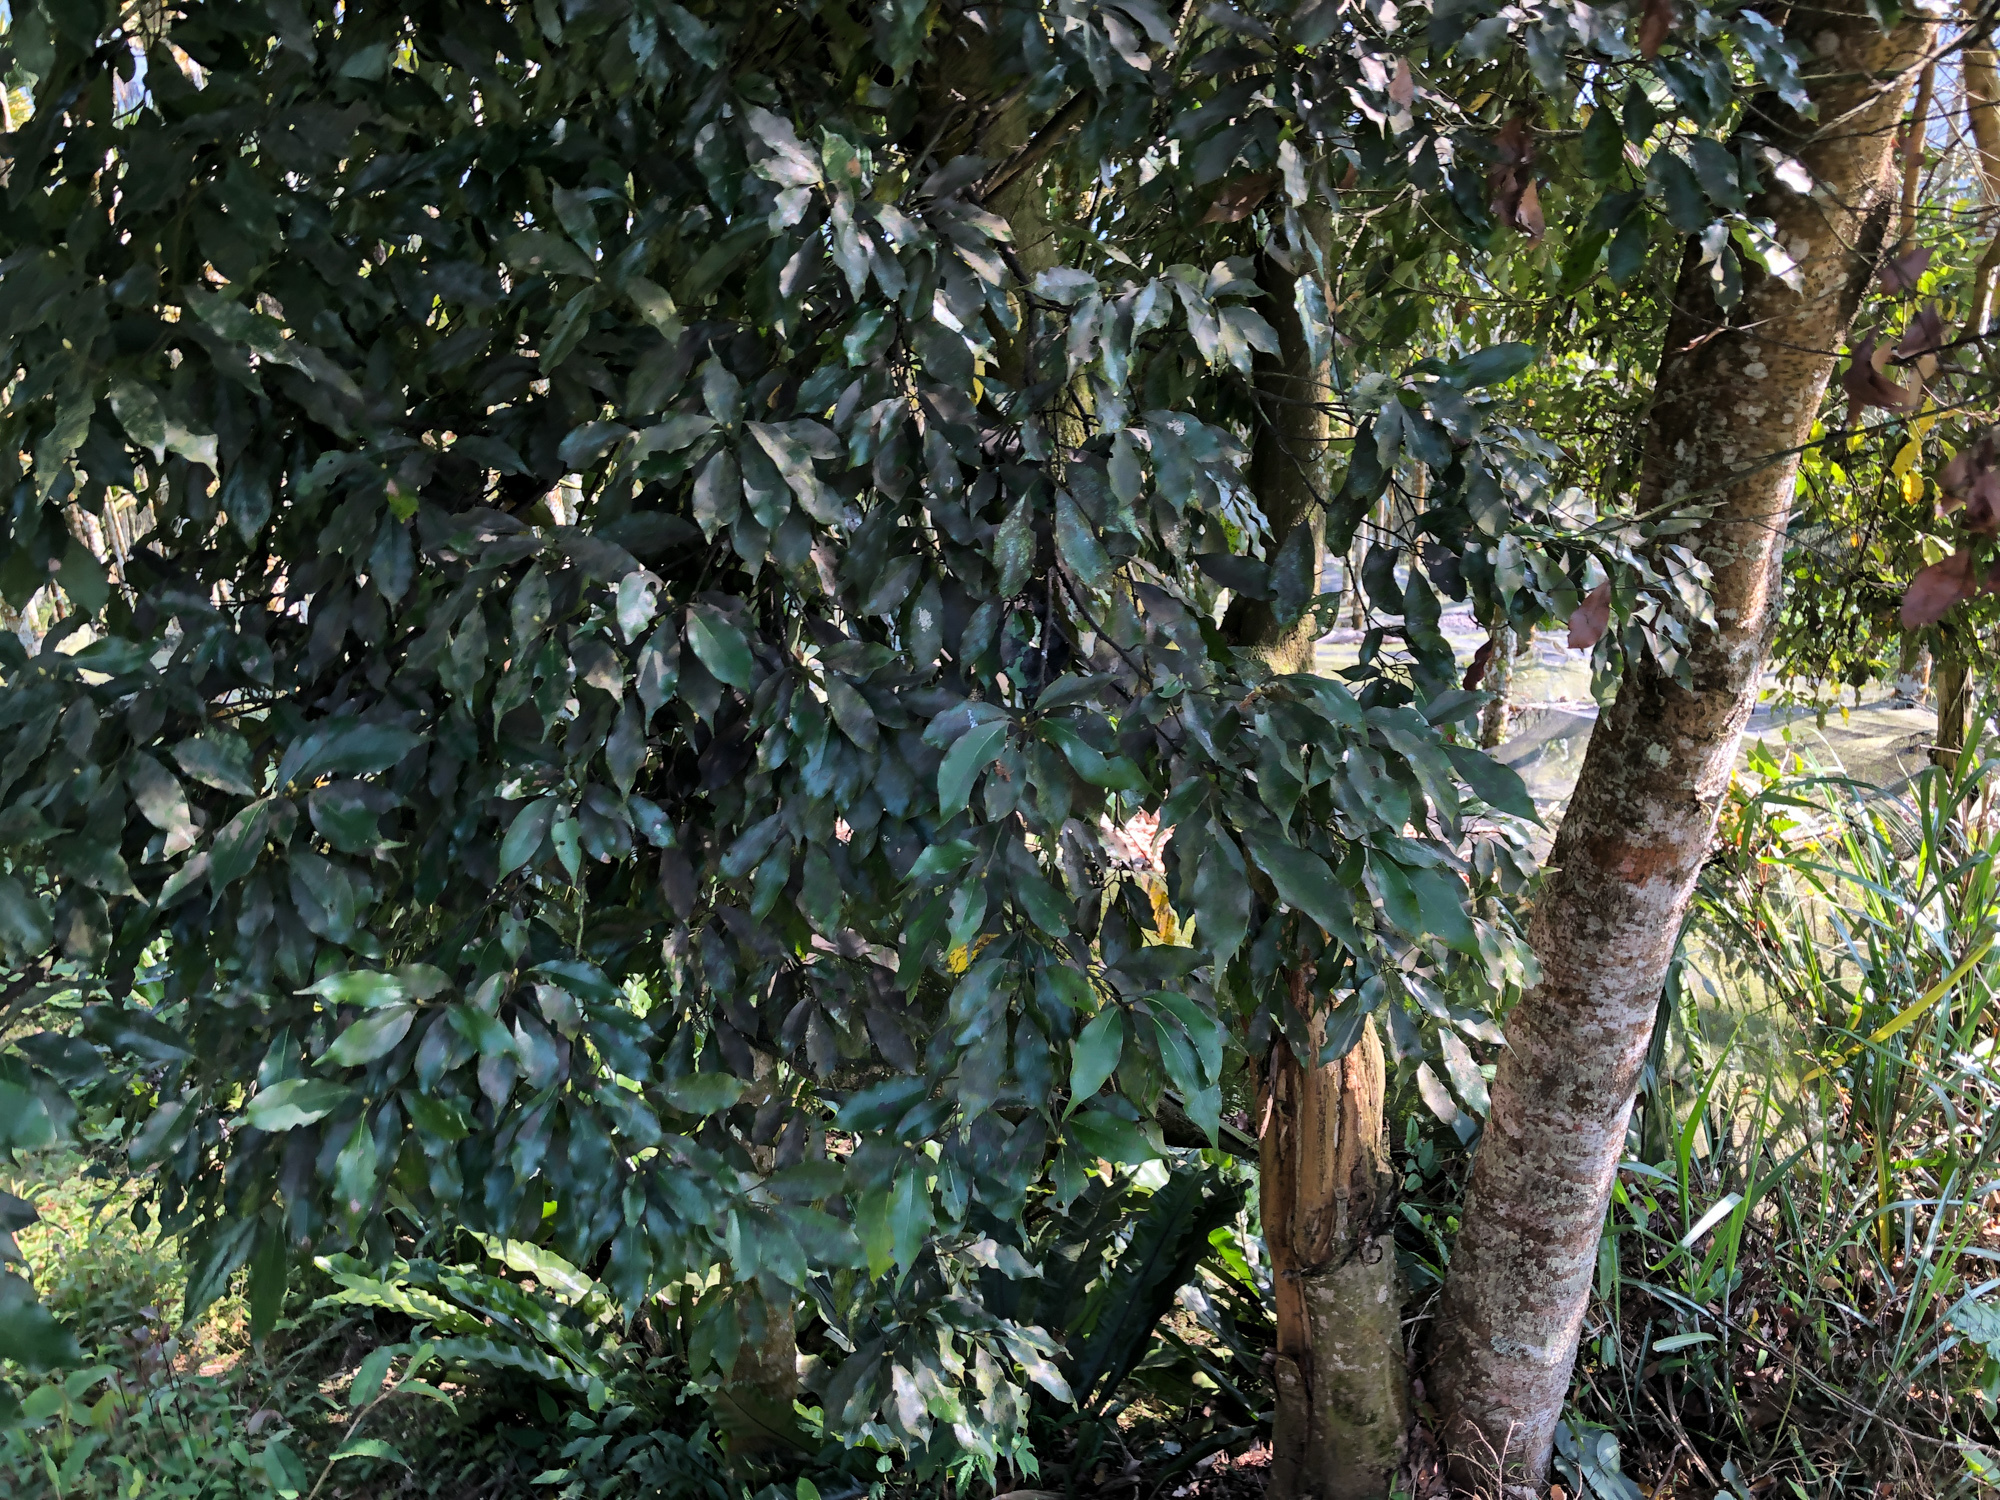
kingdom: Plantae
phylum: Tracheophyta
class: Magnoliopsida
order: Laurales
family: Lauraceae
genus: Machilus
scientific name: Machilus zuihoensis
